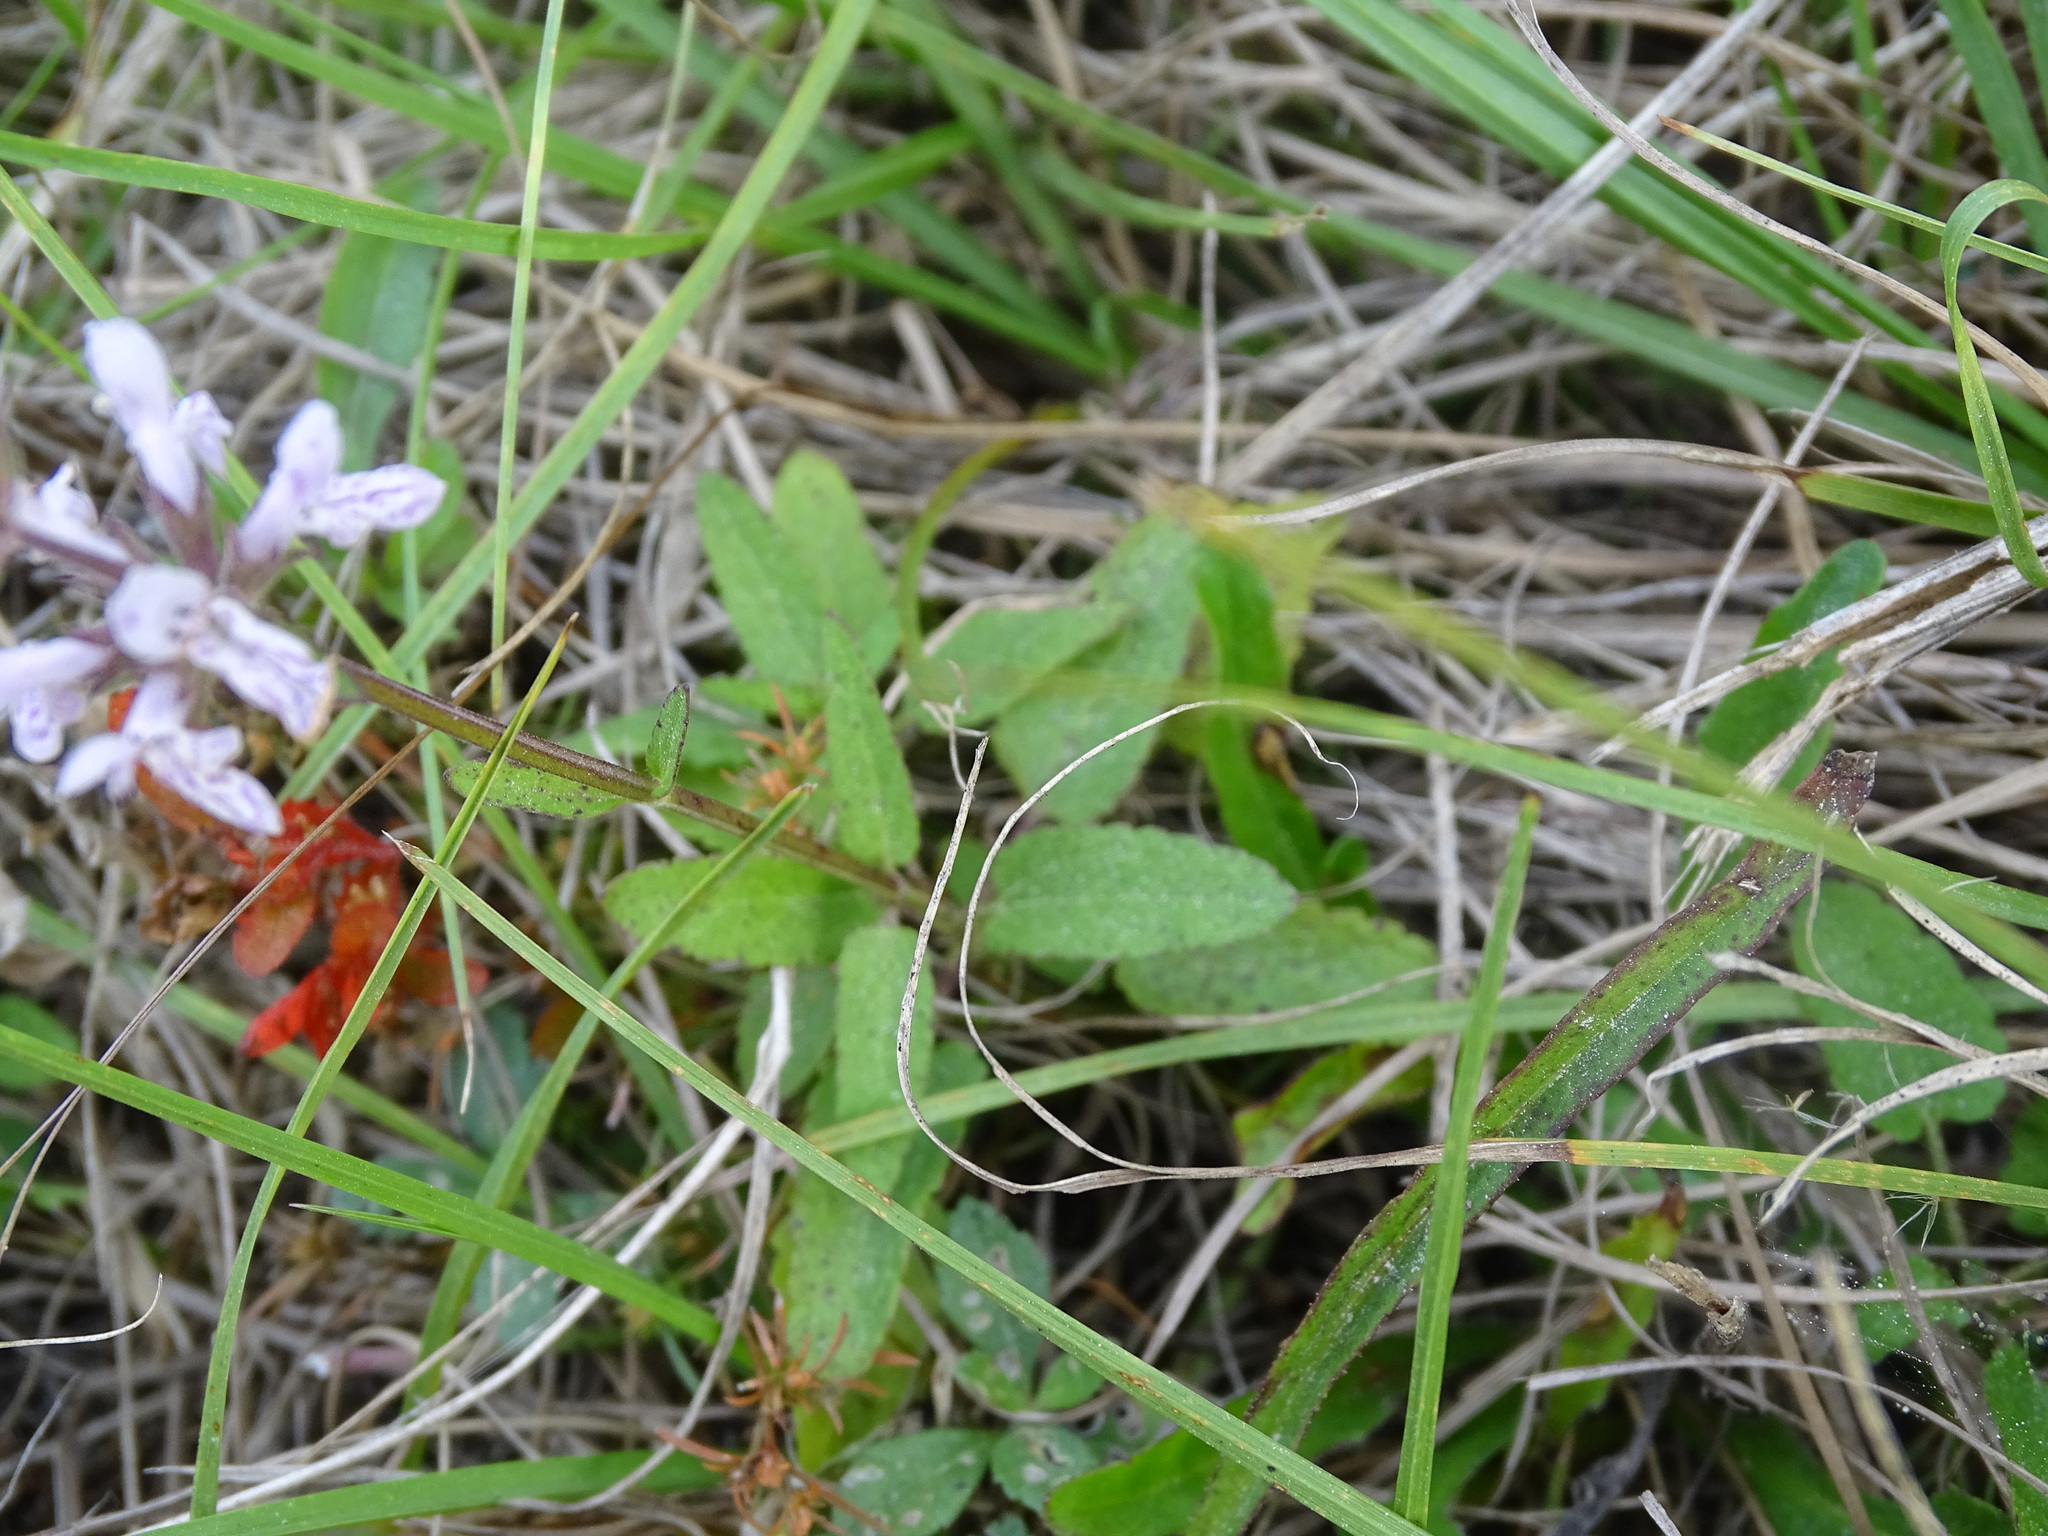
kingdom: Plantae
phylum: Tracheophyta
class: Magnoliopsida
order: Lamiales
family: Lamiaceae
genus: Stachys
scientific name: Stachys floridana
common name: Florida betony
